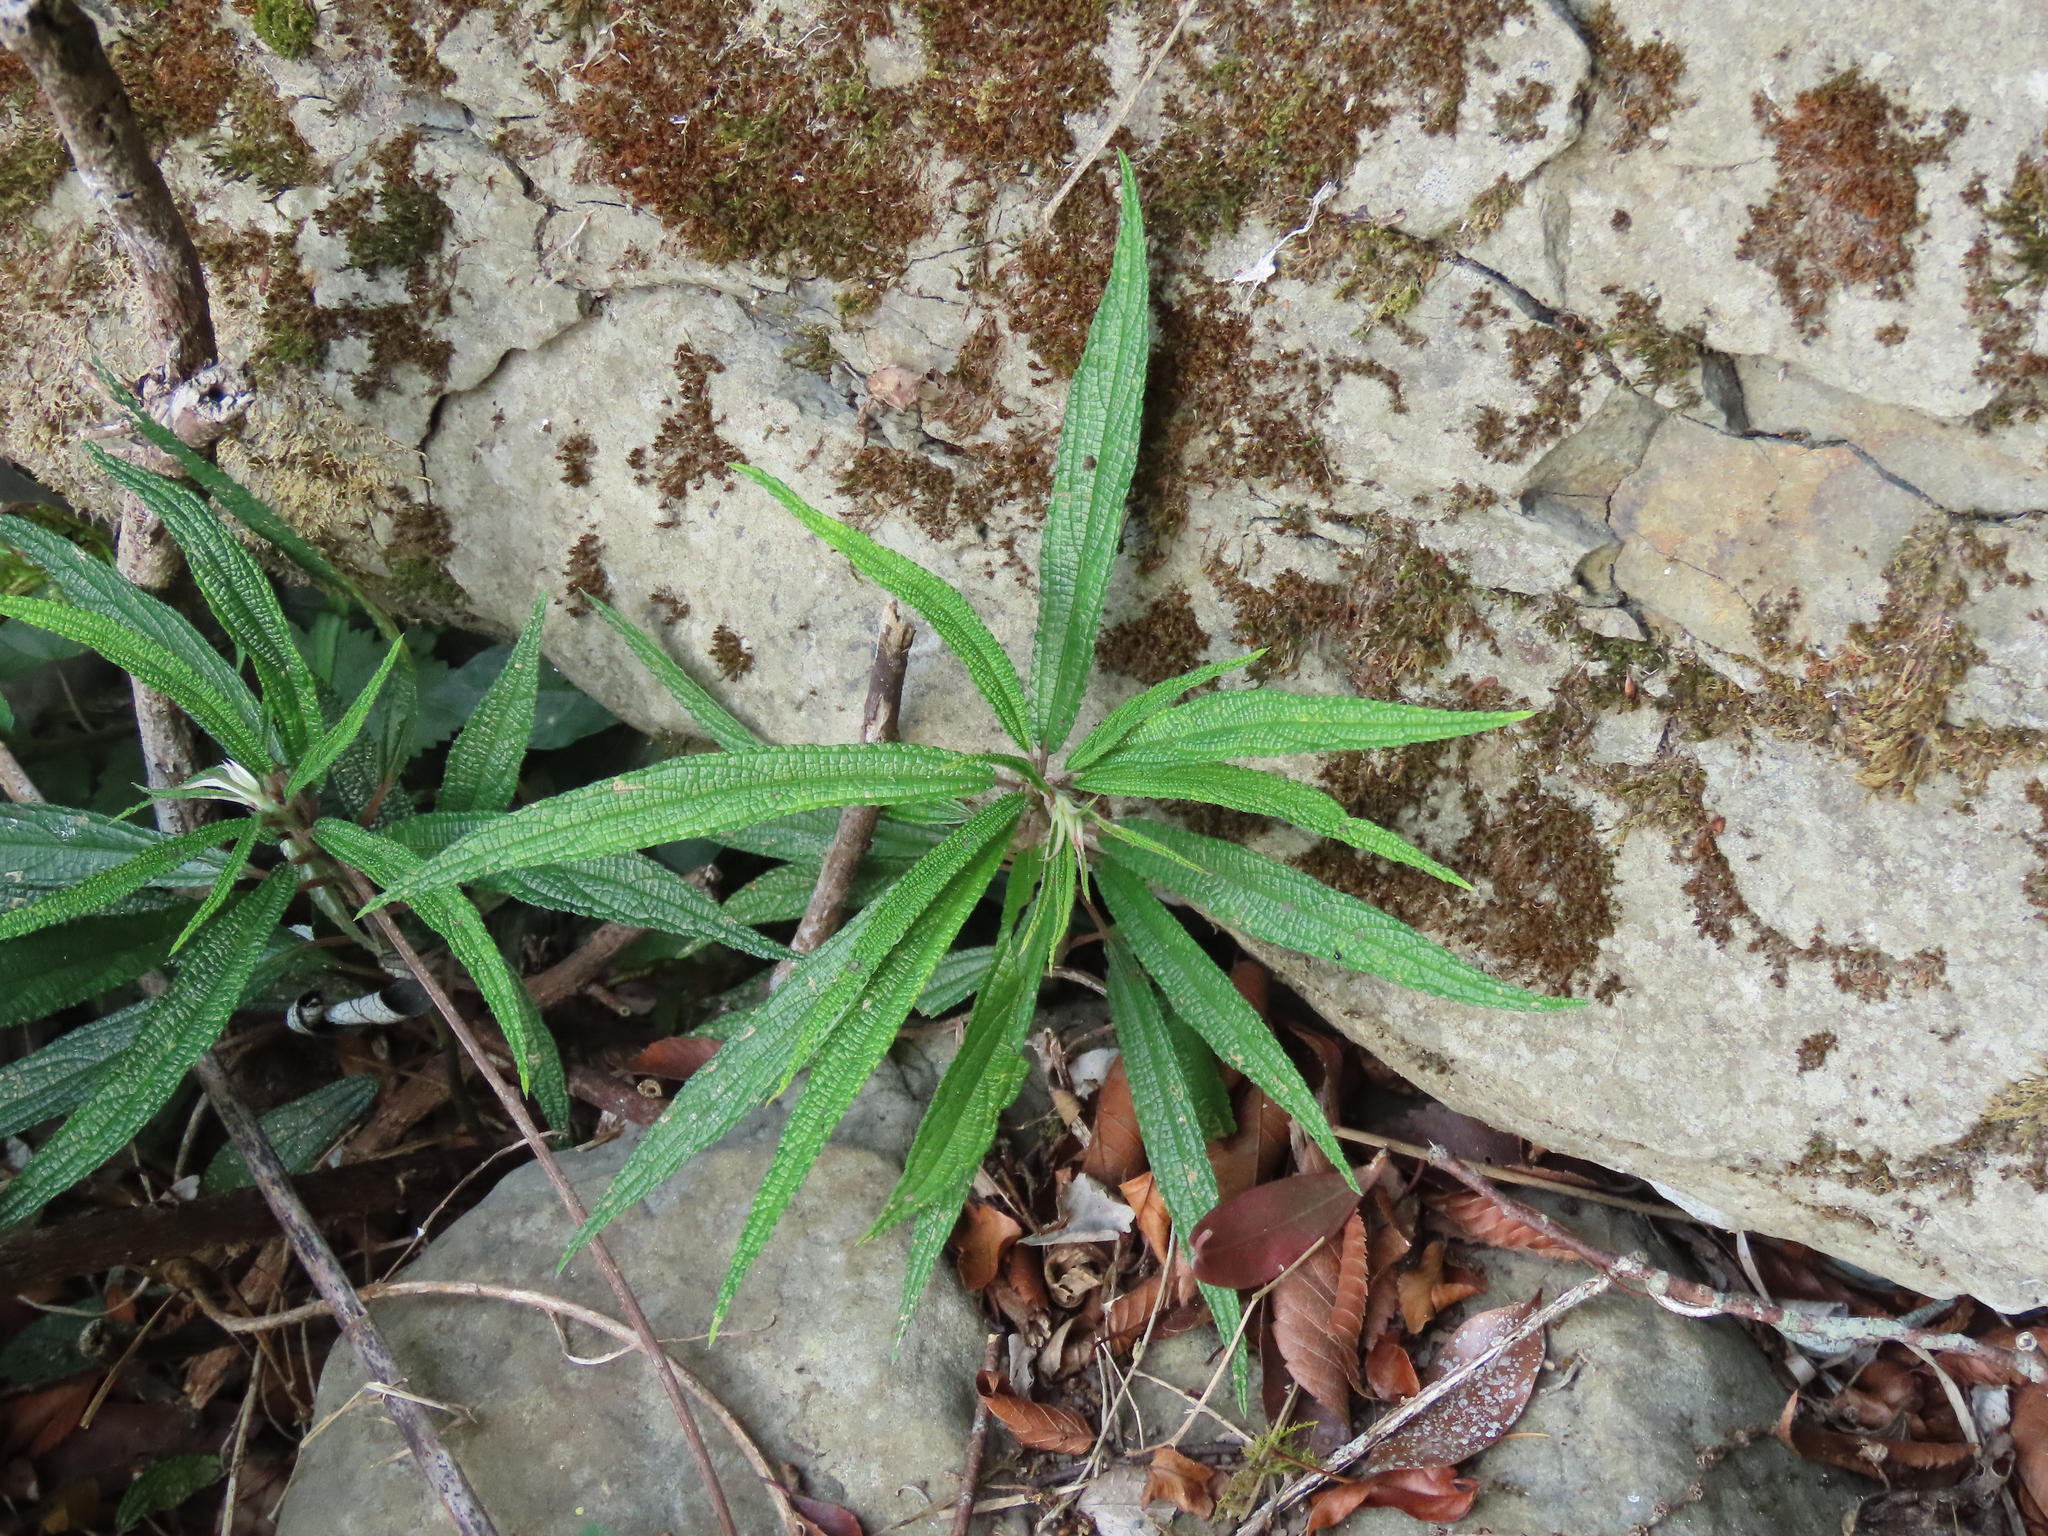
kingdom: Plantae
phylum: Tracheophyta
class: Magnoliopsida
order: Rosales
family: Urticaceae
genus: Debregeasia
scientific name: Debregeasia orientalis
